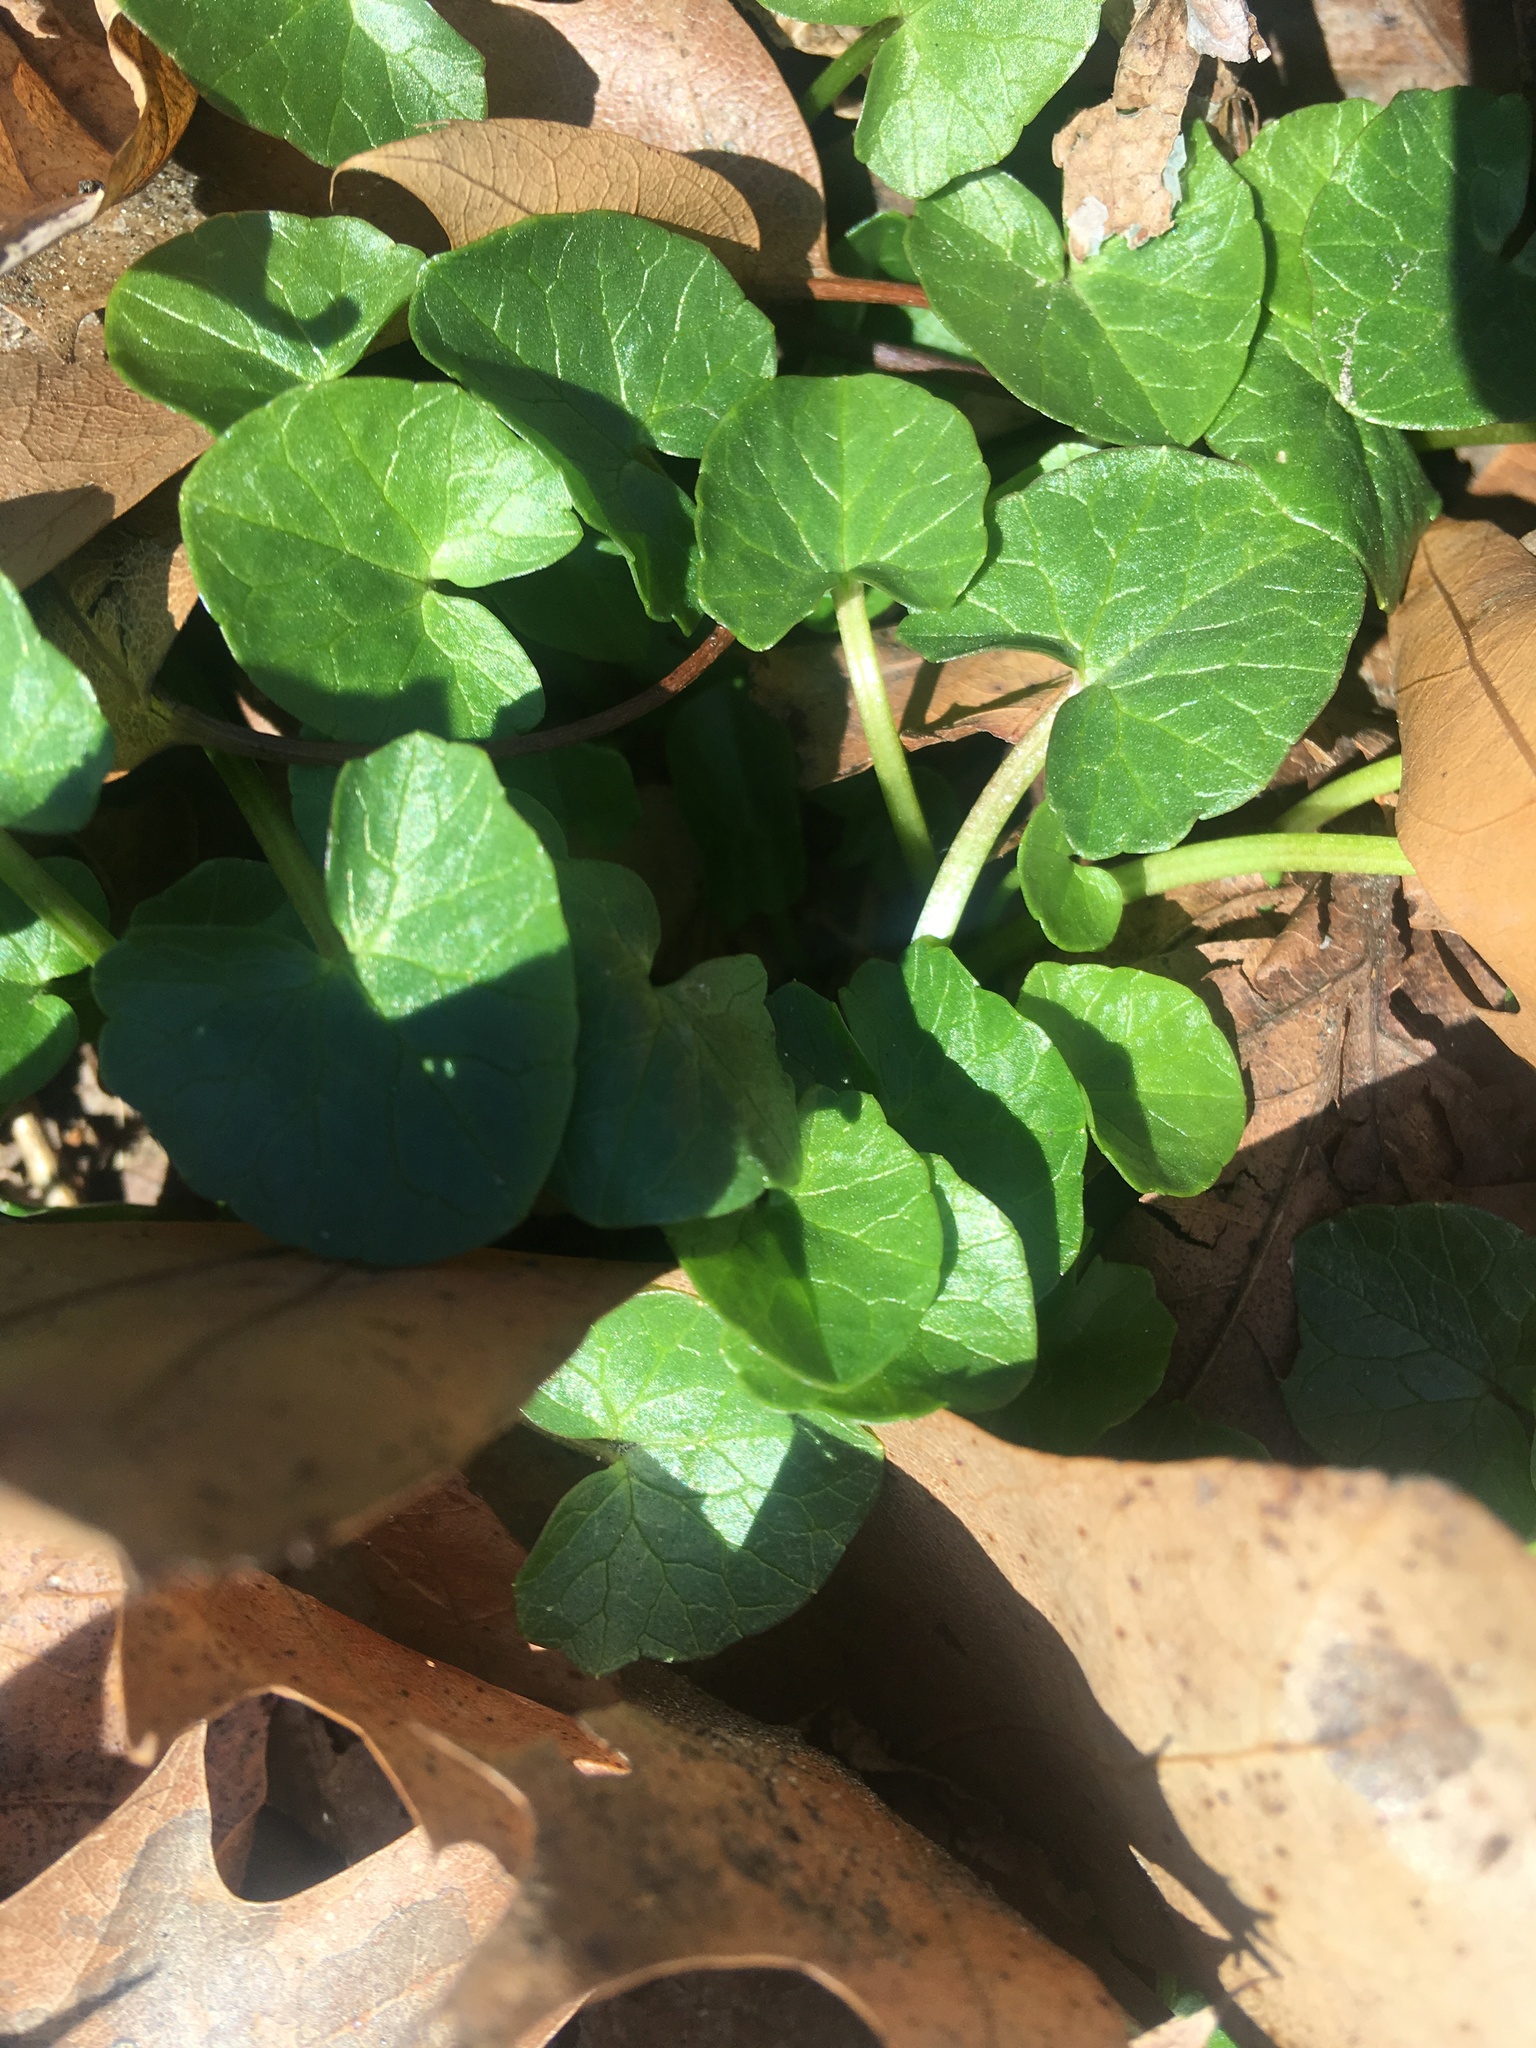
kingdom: Plantae
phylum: Tracheophyta
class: Magnoliopsida
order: Ranunculales
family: Ranunculaceae
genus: Ficaria
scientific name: Ficaria verna
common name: Lesser celandine
